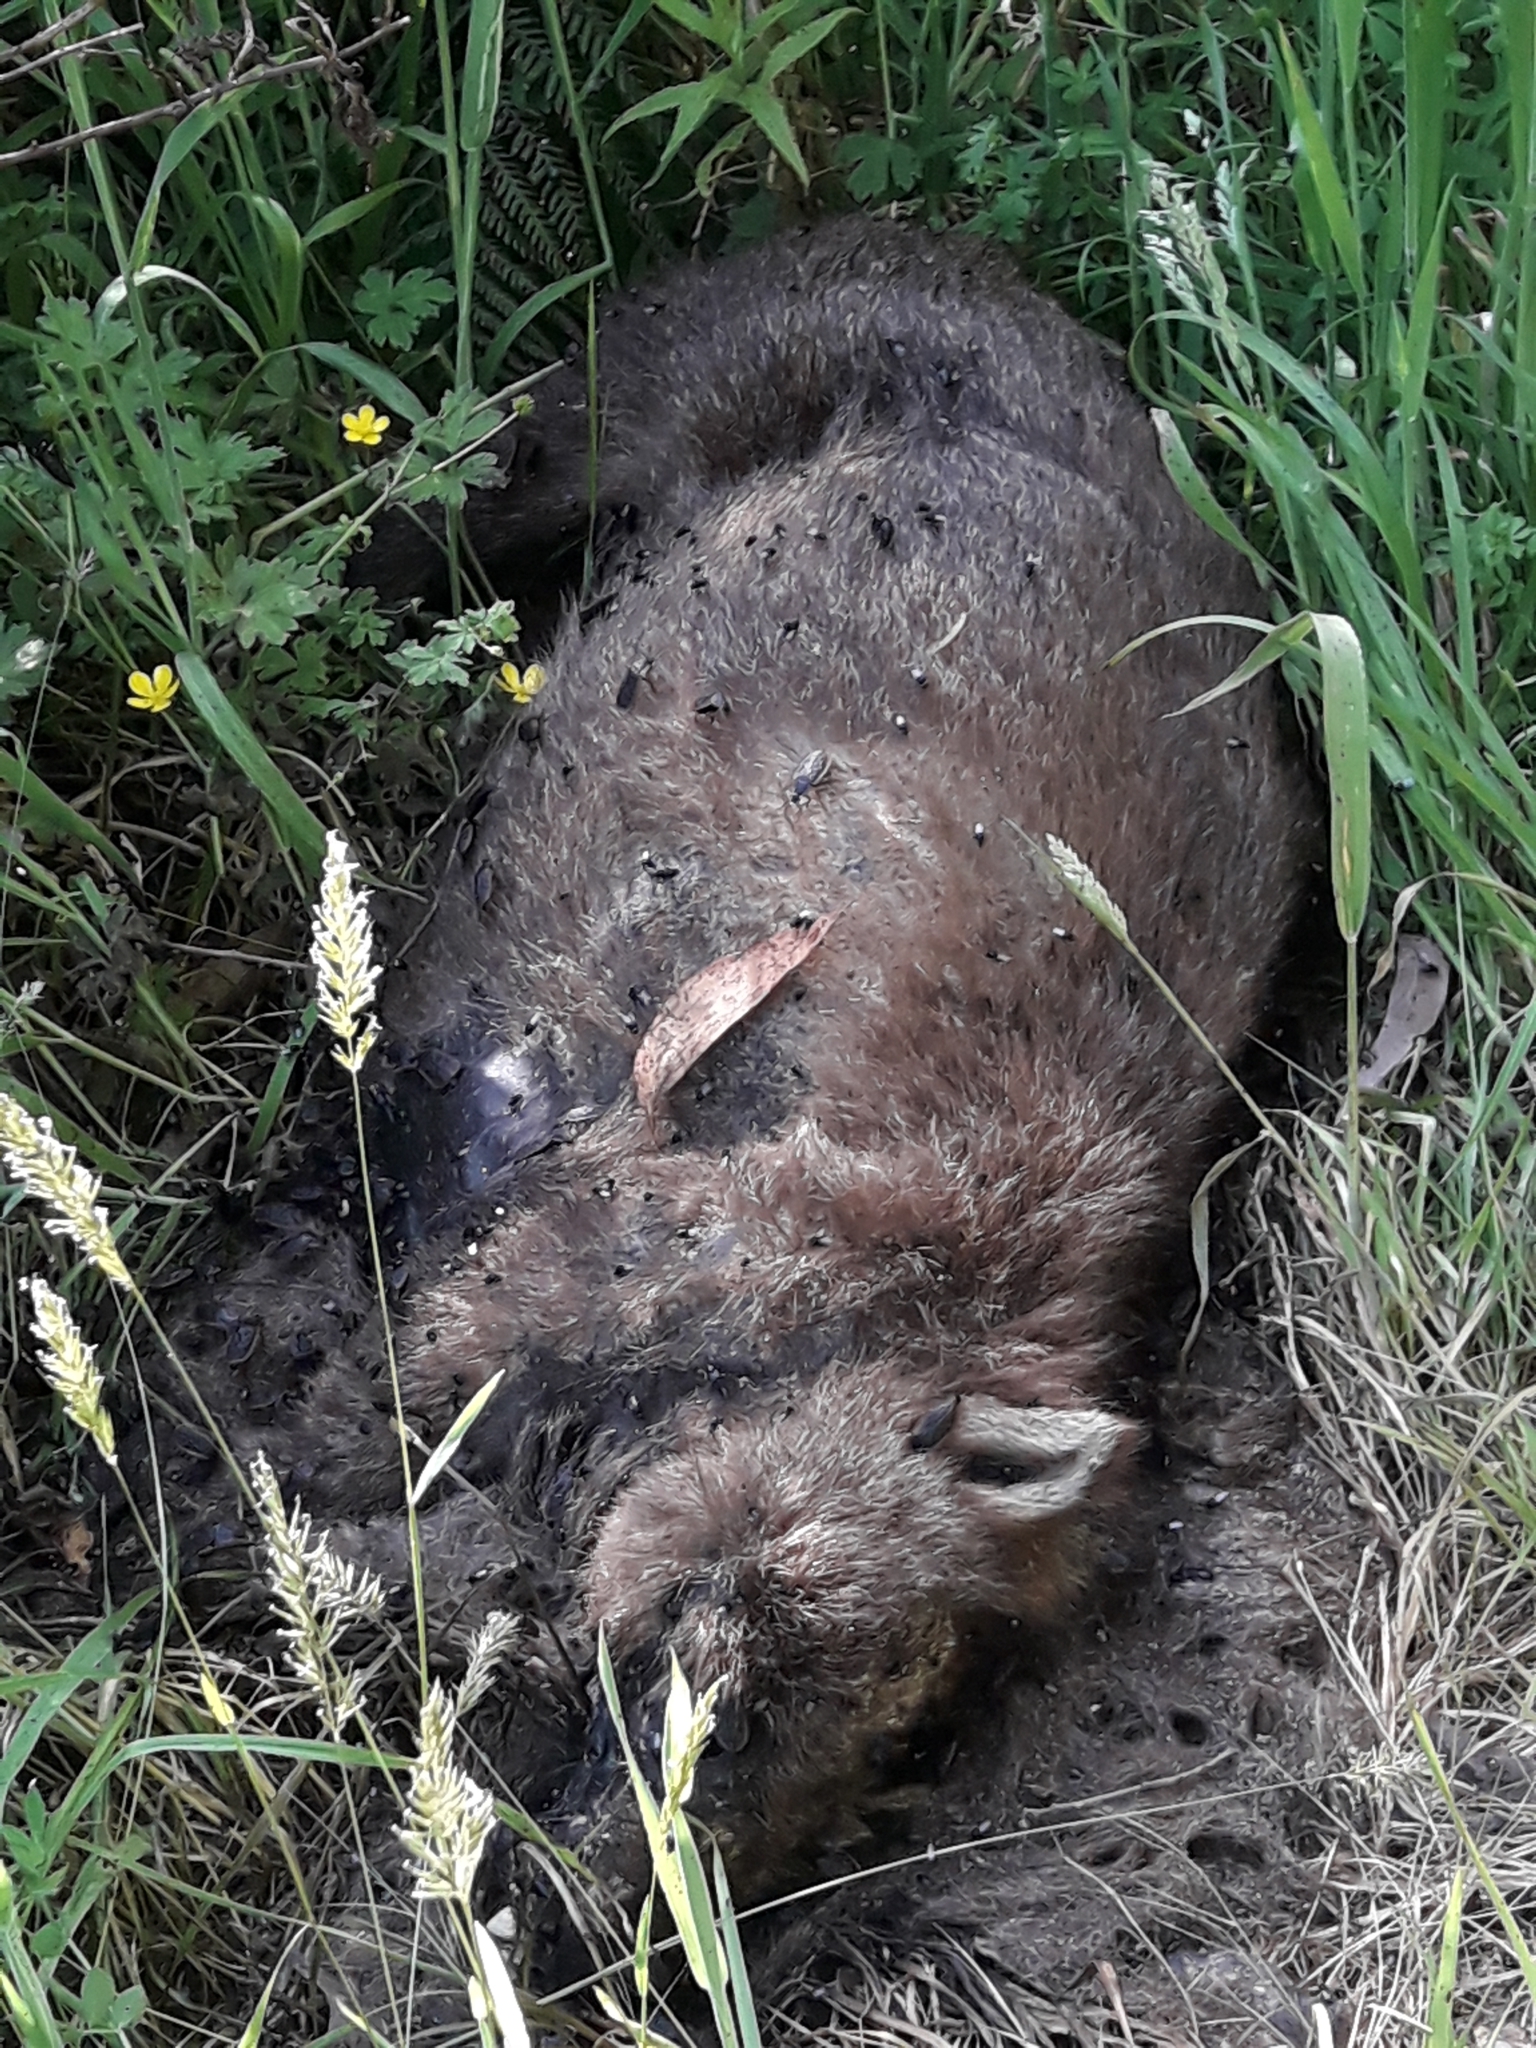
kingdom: Animalia
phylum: Chordata
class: Mammalia
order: Diprotodontia
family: Vombatidae
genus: Vombatus
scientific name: Vombatus ursinus
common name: Common wombat
